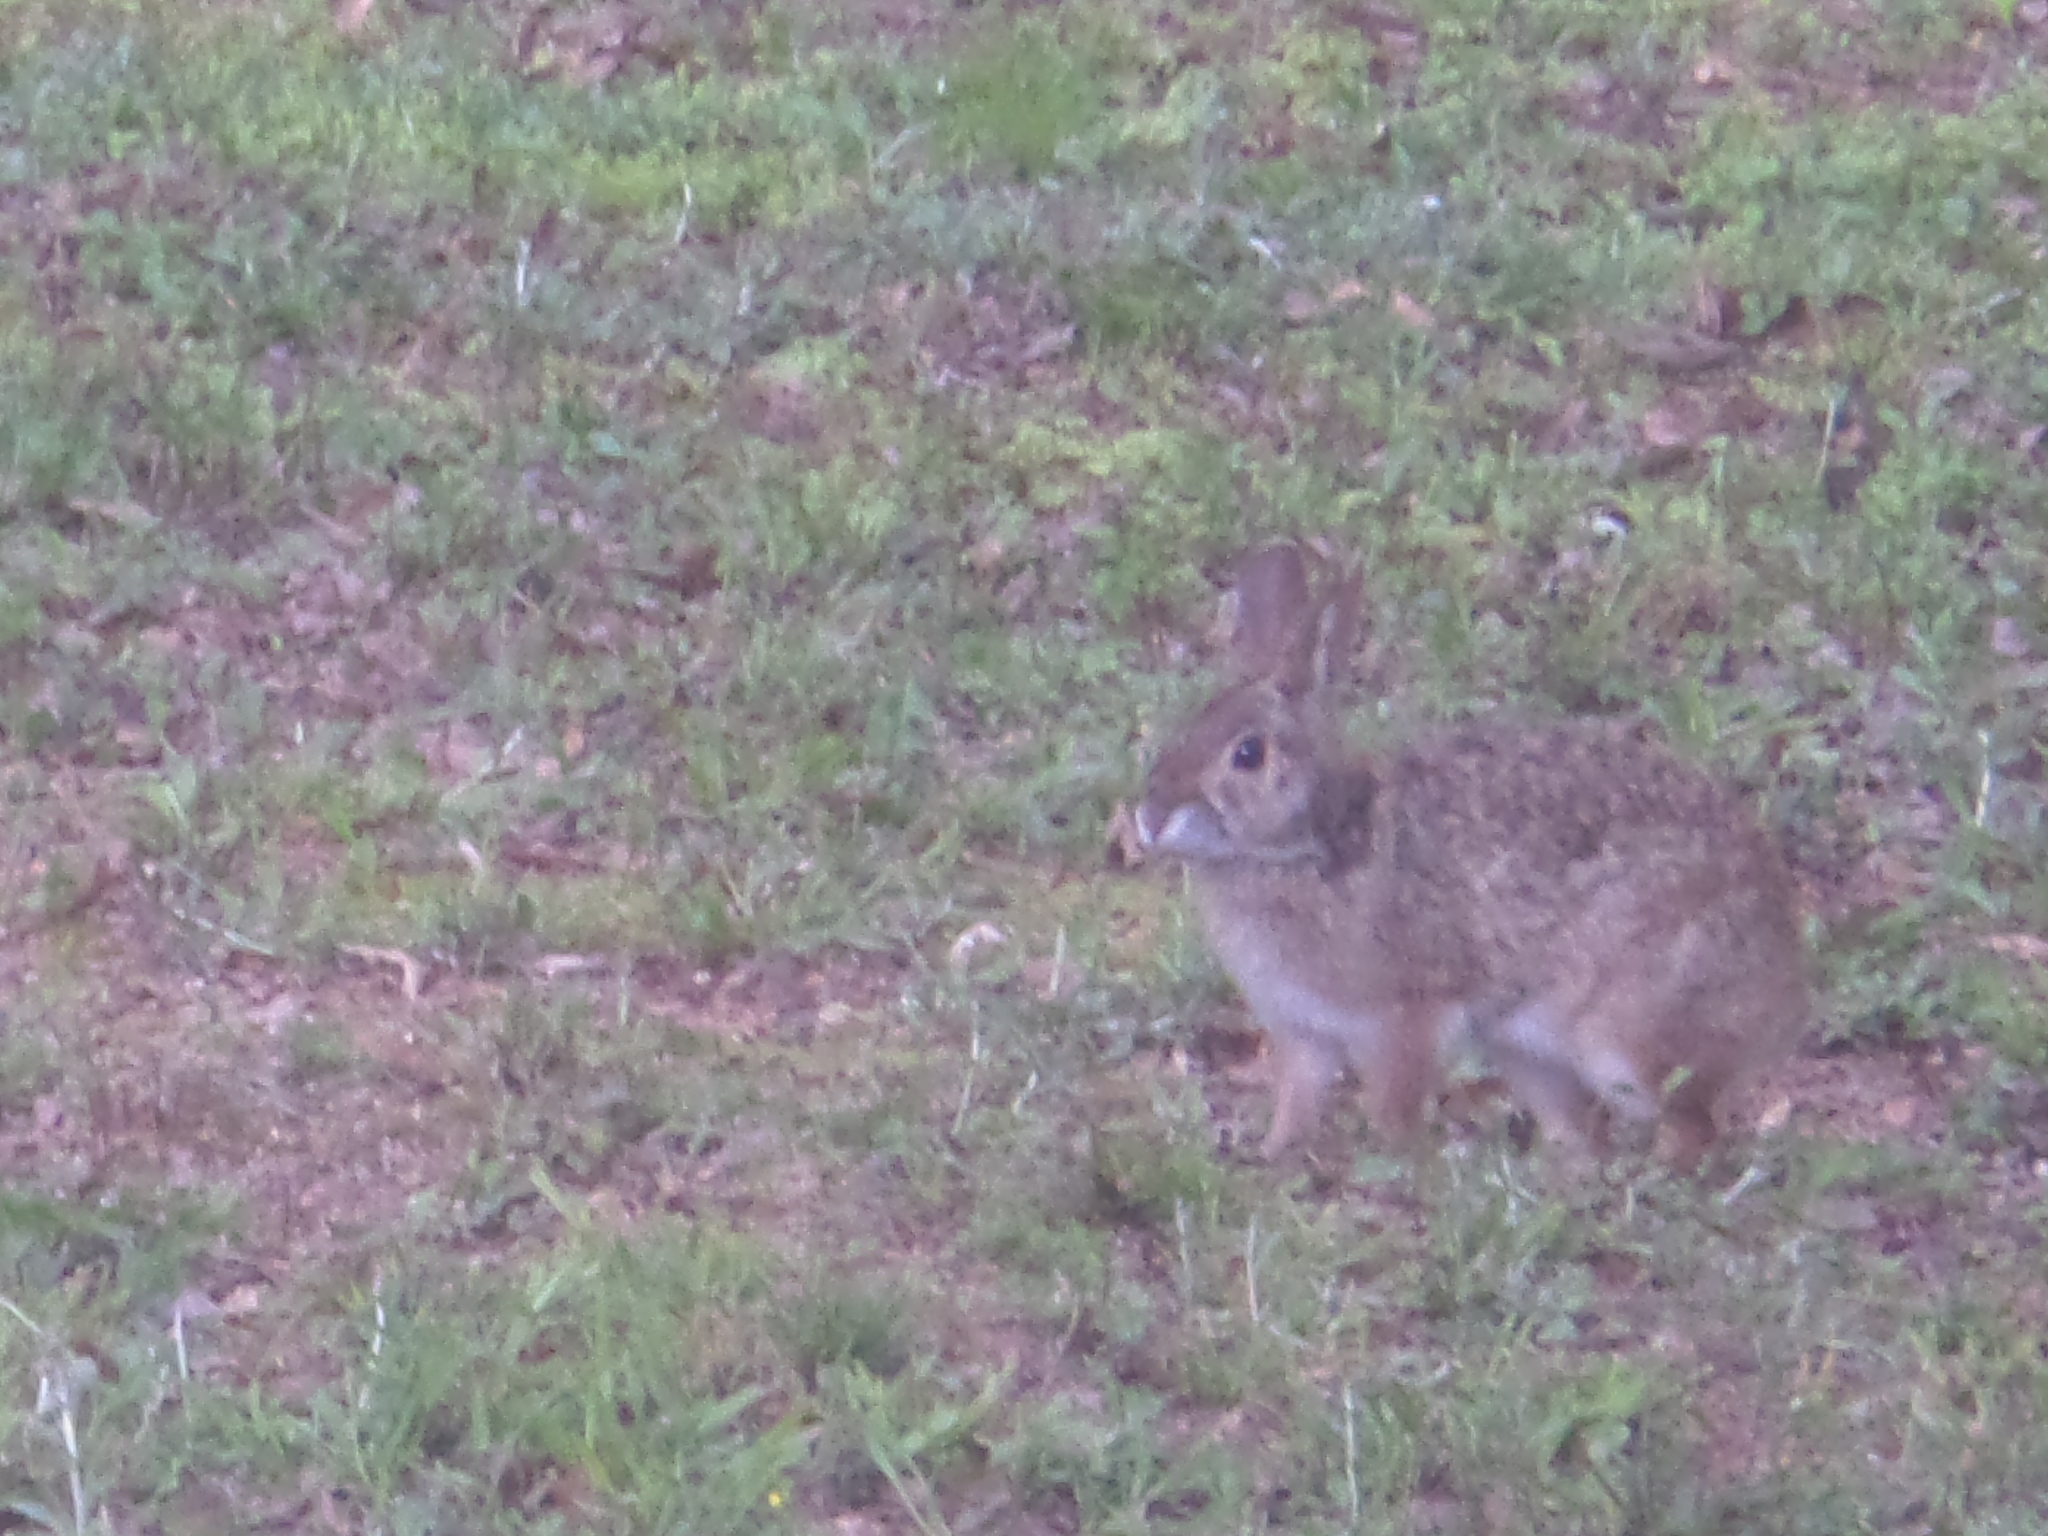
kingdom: Animalia
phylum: Chordata
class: Mammalia
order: Lagomorpha
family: Leporidae
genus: Sylvilagus
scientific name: Sylvilagus aquaticus
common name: Swamp rabbit
